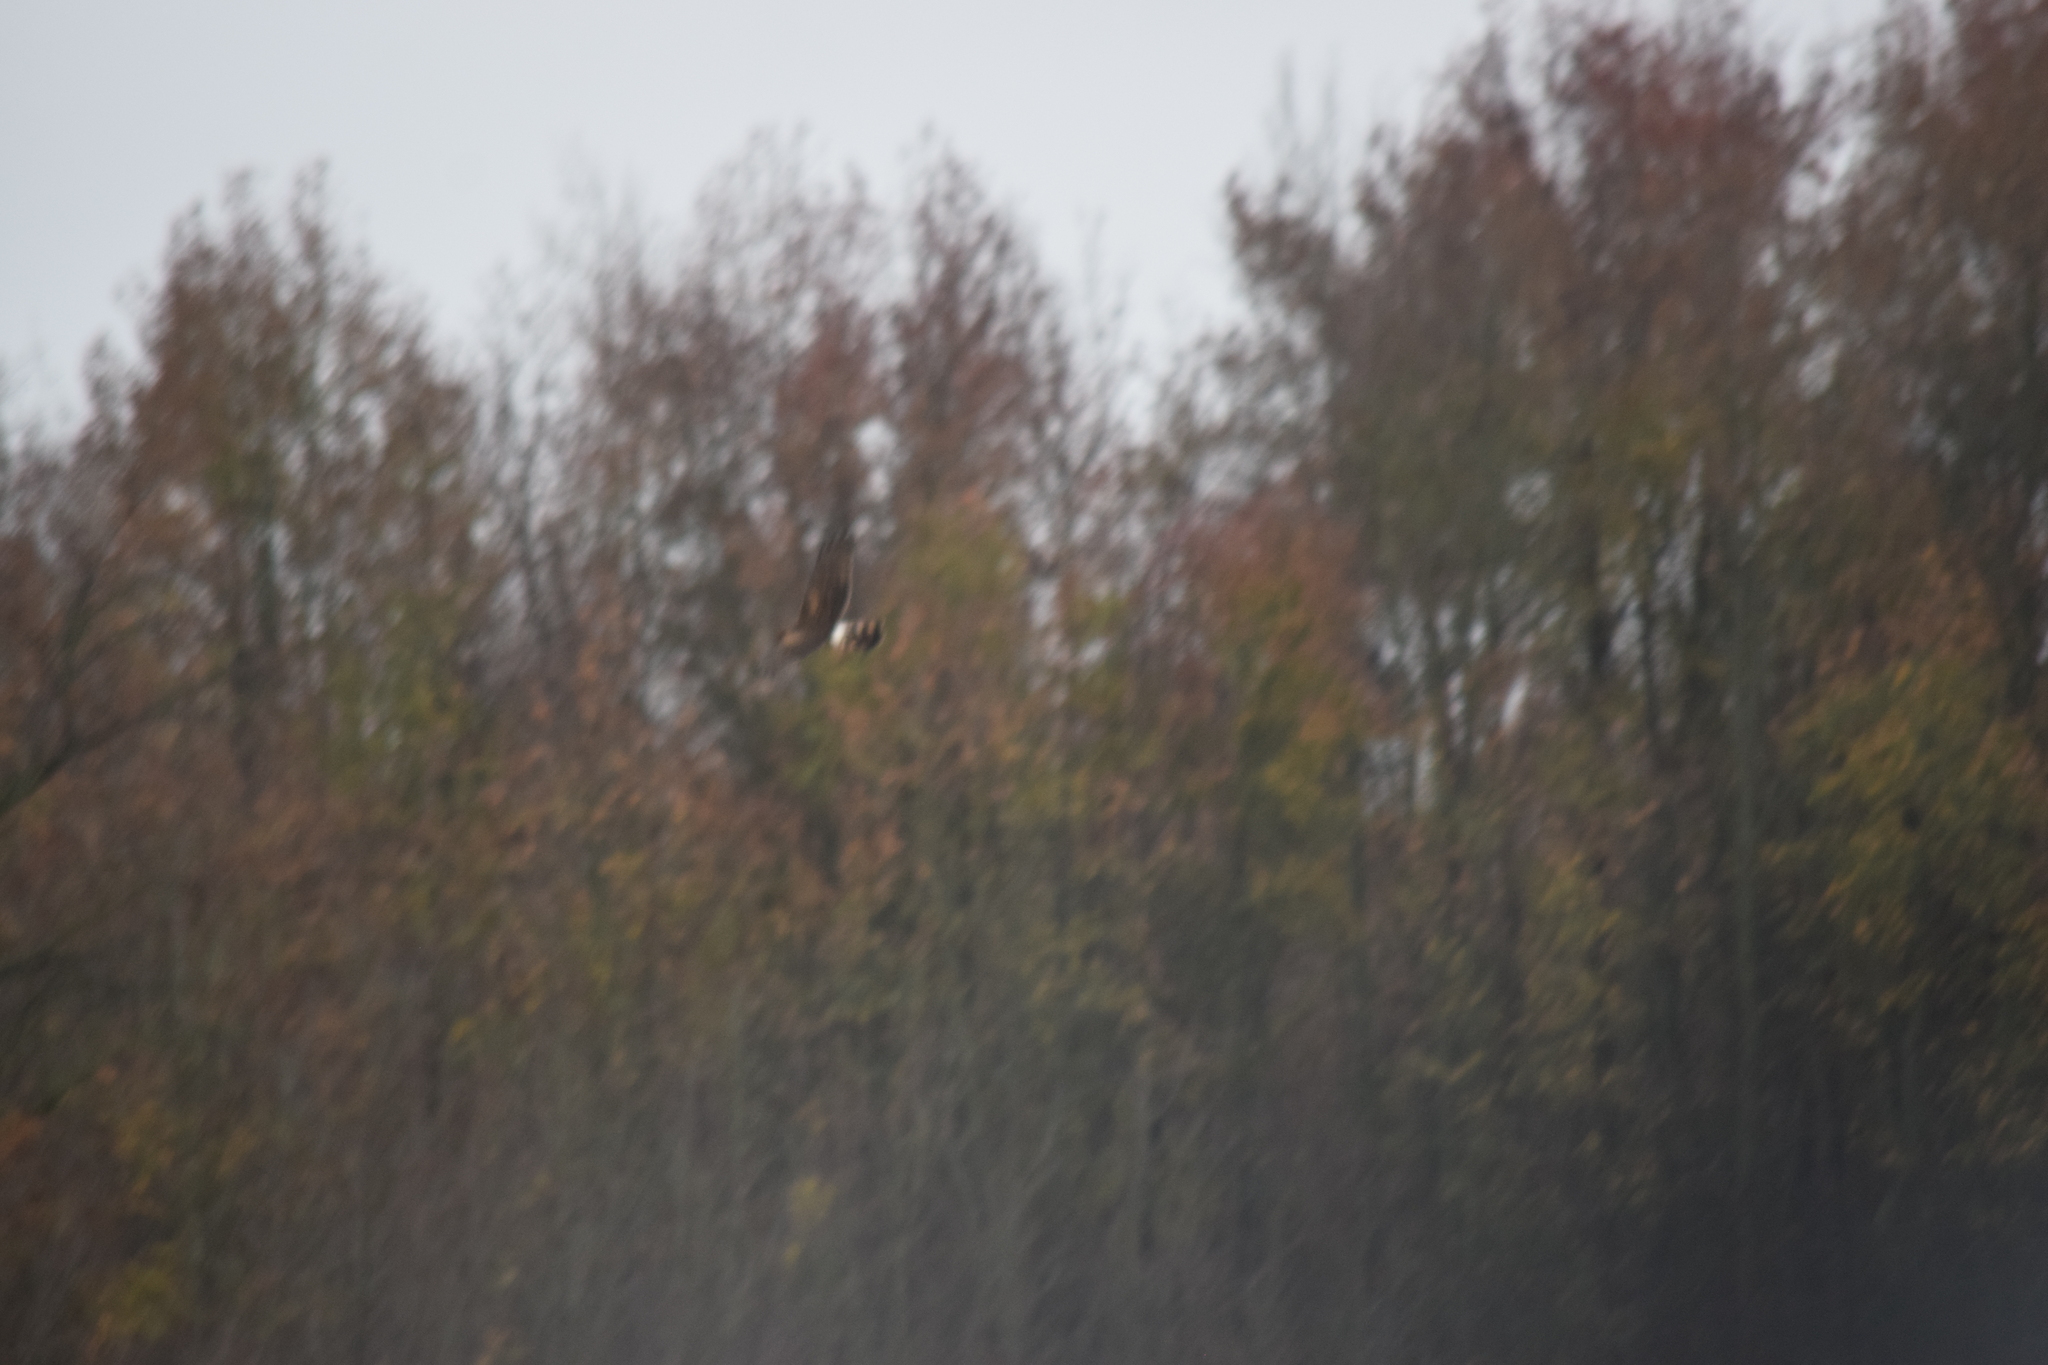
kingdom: Animalia
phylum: Chordata
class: Aves
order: Accipitriformes
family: Accipitridae
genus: Circus
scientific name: Circus cyaneus
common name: Hen harrier
